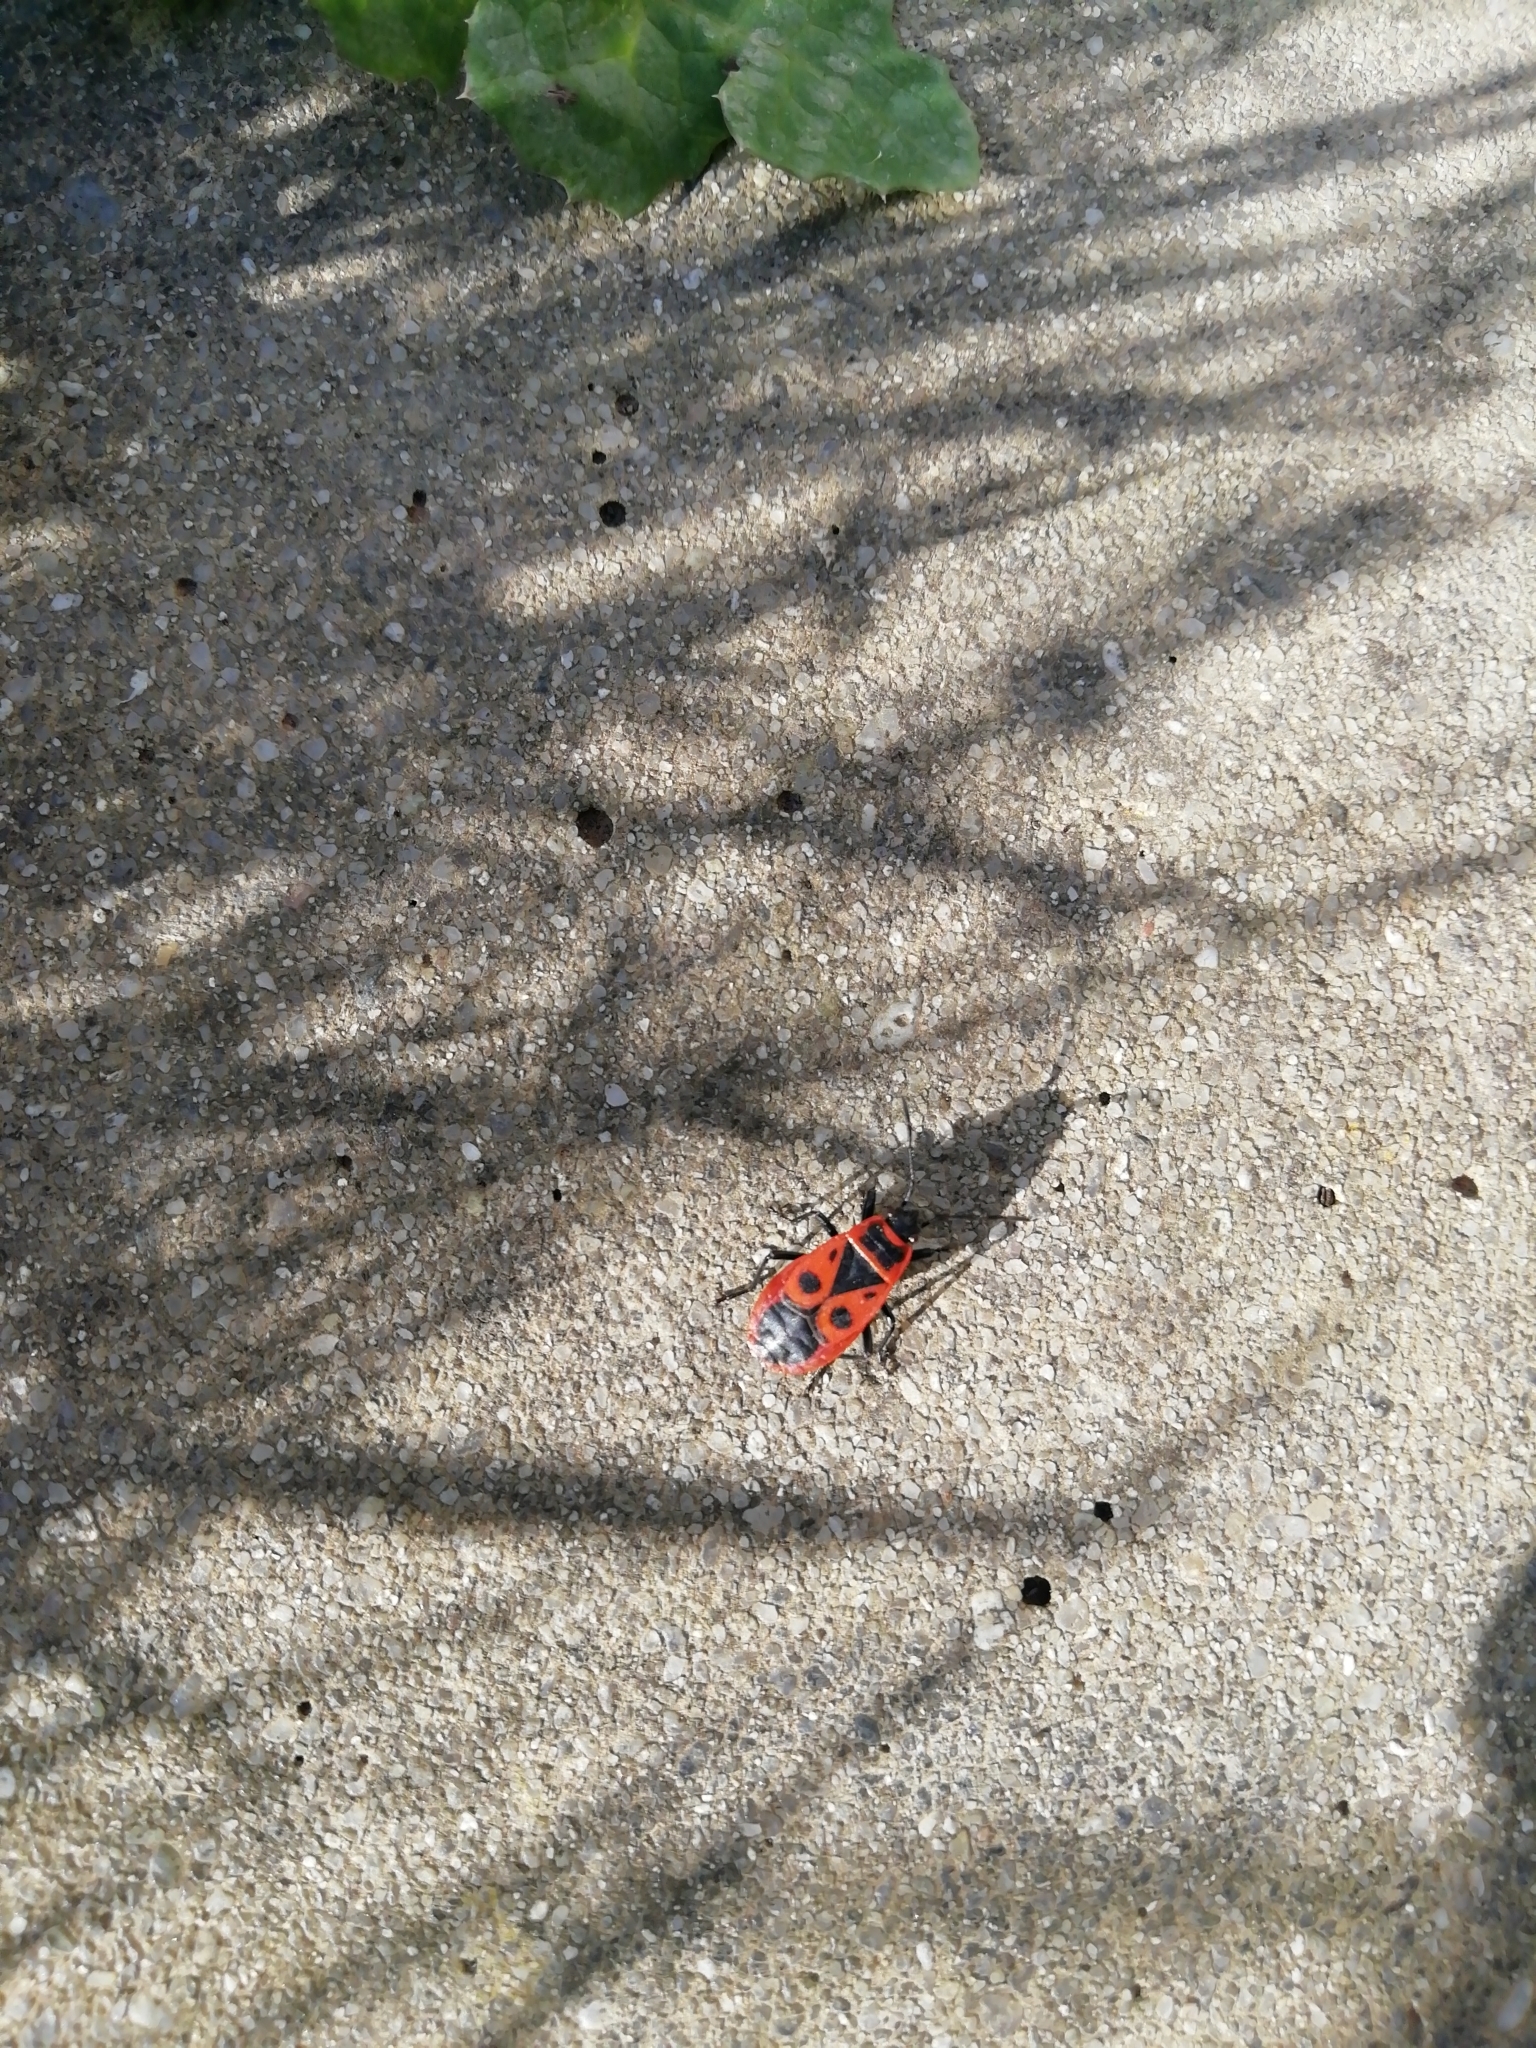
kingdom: Animalia
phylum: Arthropoda
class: Insecta
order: Hemiptera
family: Pyrrhocoridae
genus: Pyrrhocoris
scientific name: Pyrrhocoris apterus
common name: Firebug
